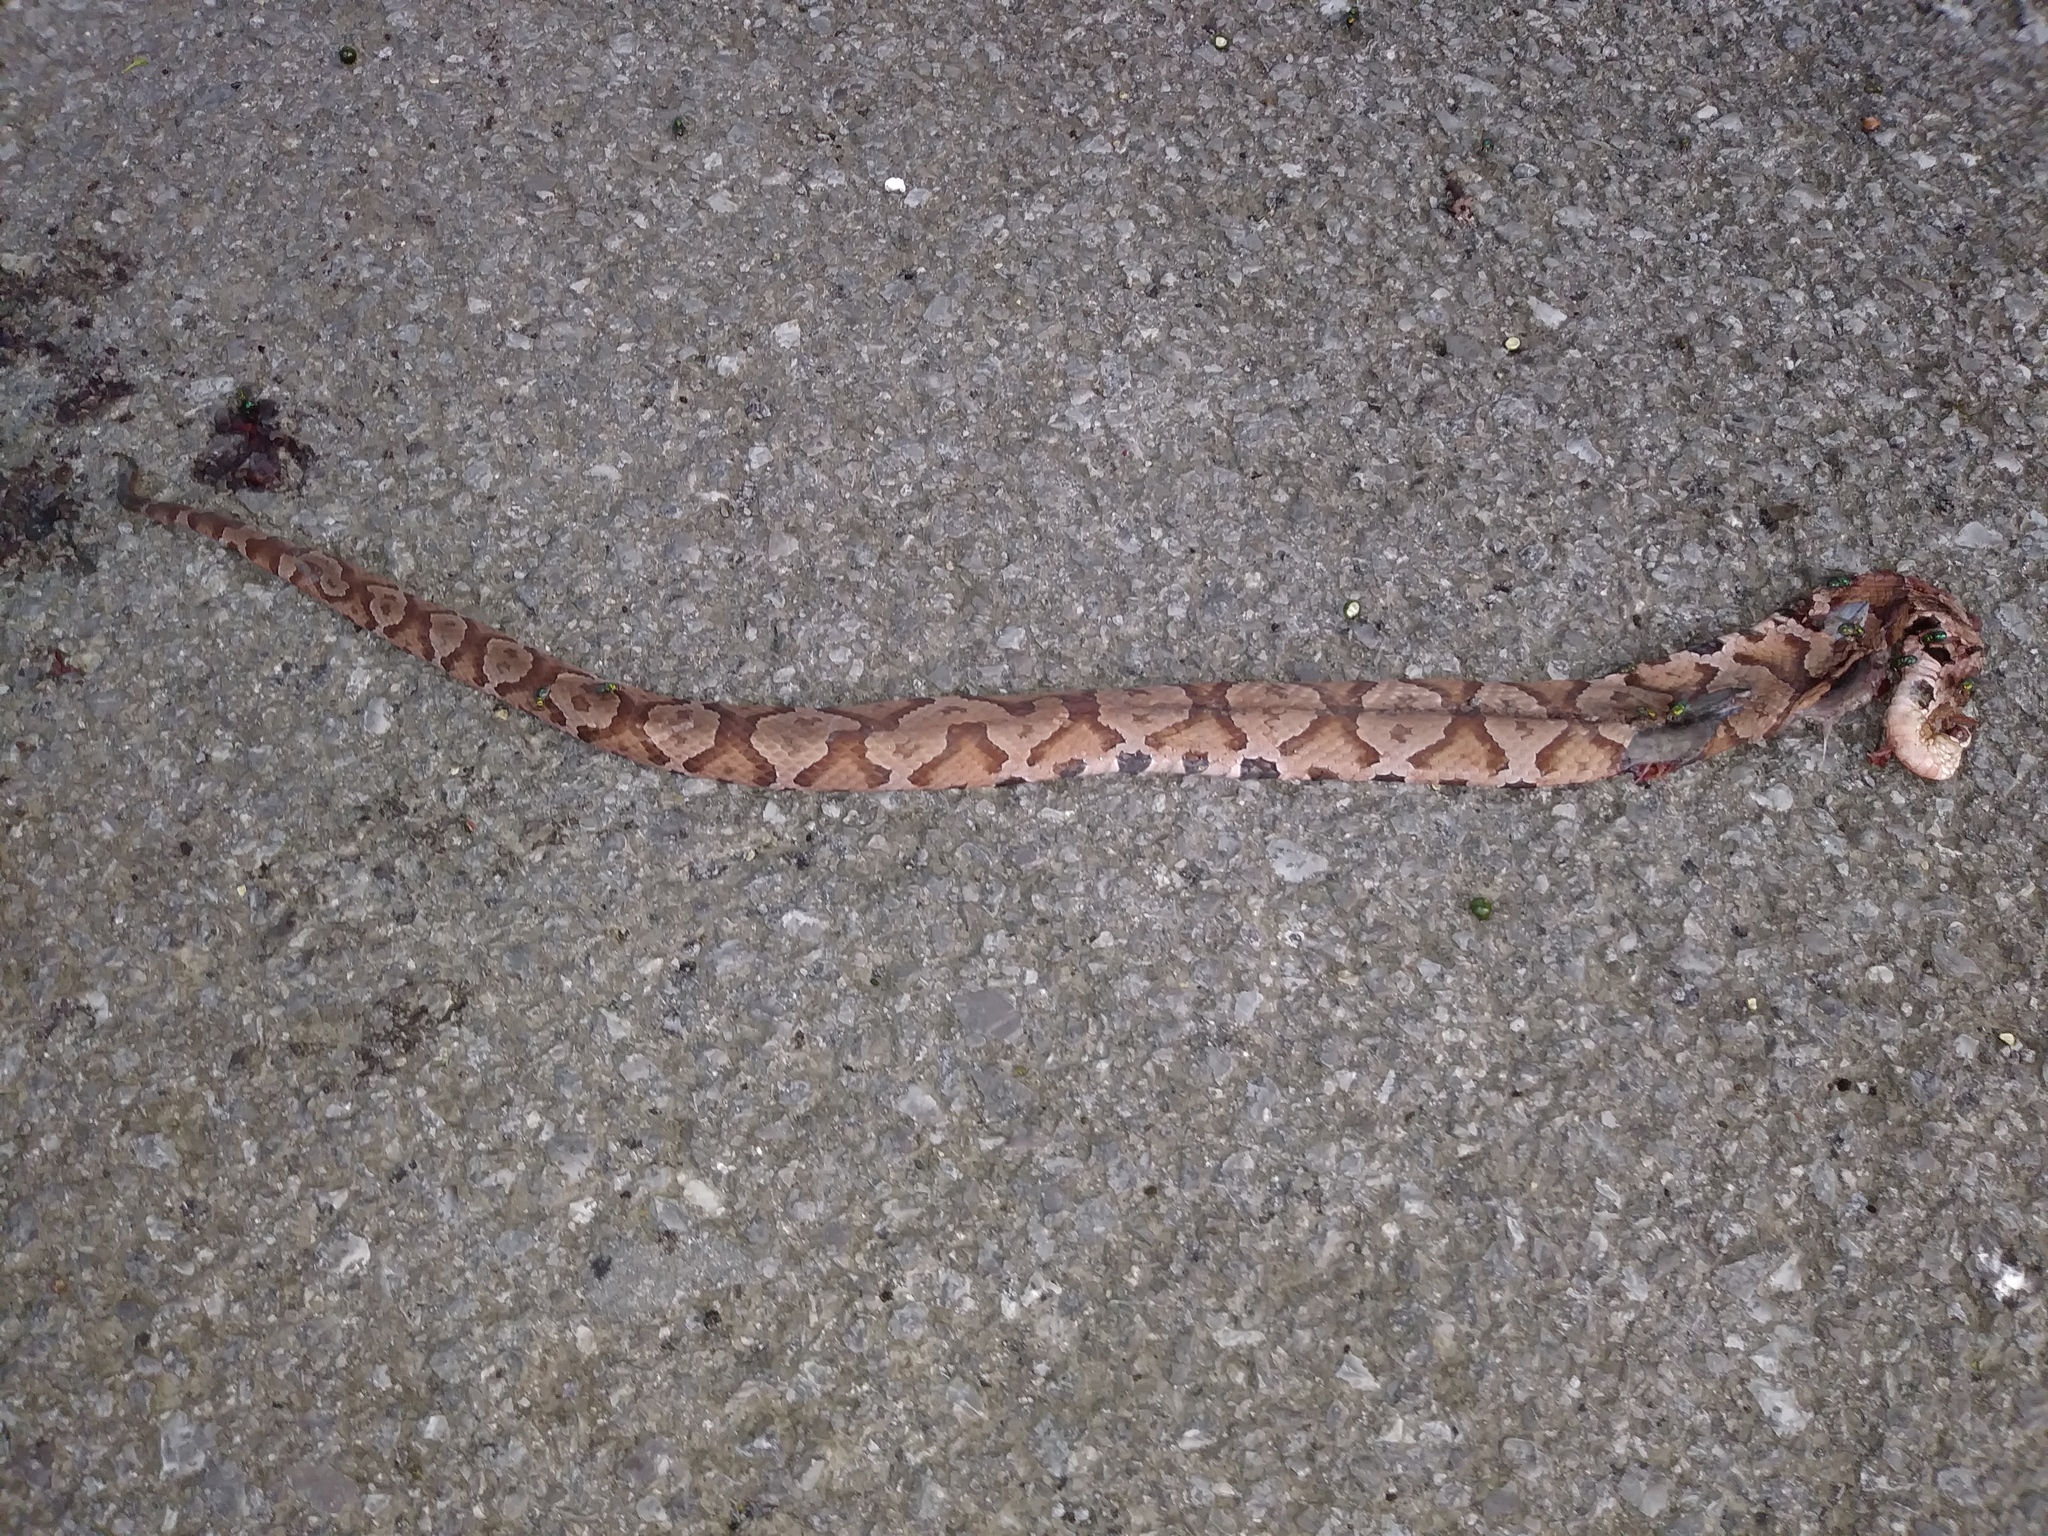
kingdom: Animalia
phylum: Chordata
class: Squamata
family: Viperidae
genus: Agkistrodon
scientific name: Agkistrodon contortrix
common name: Northern copperhead
